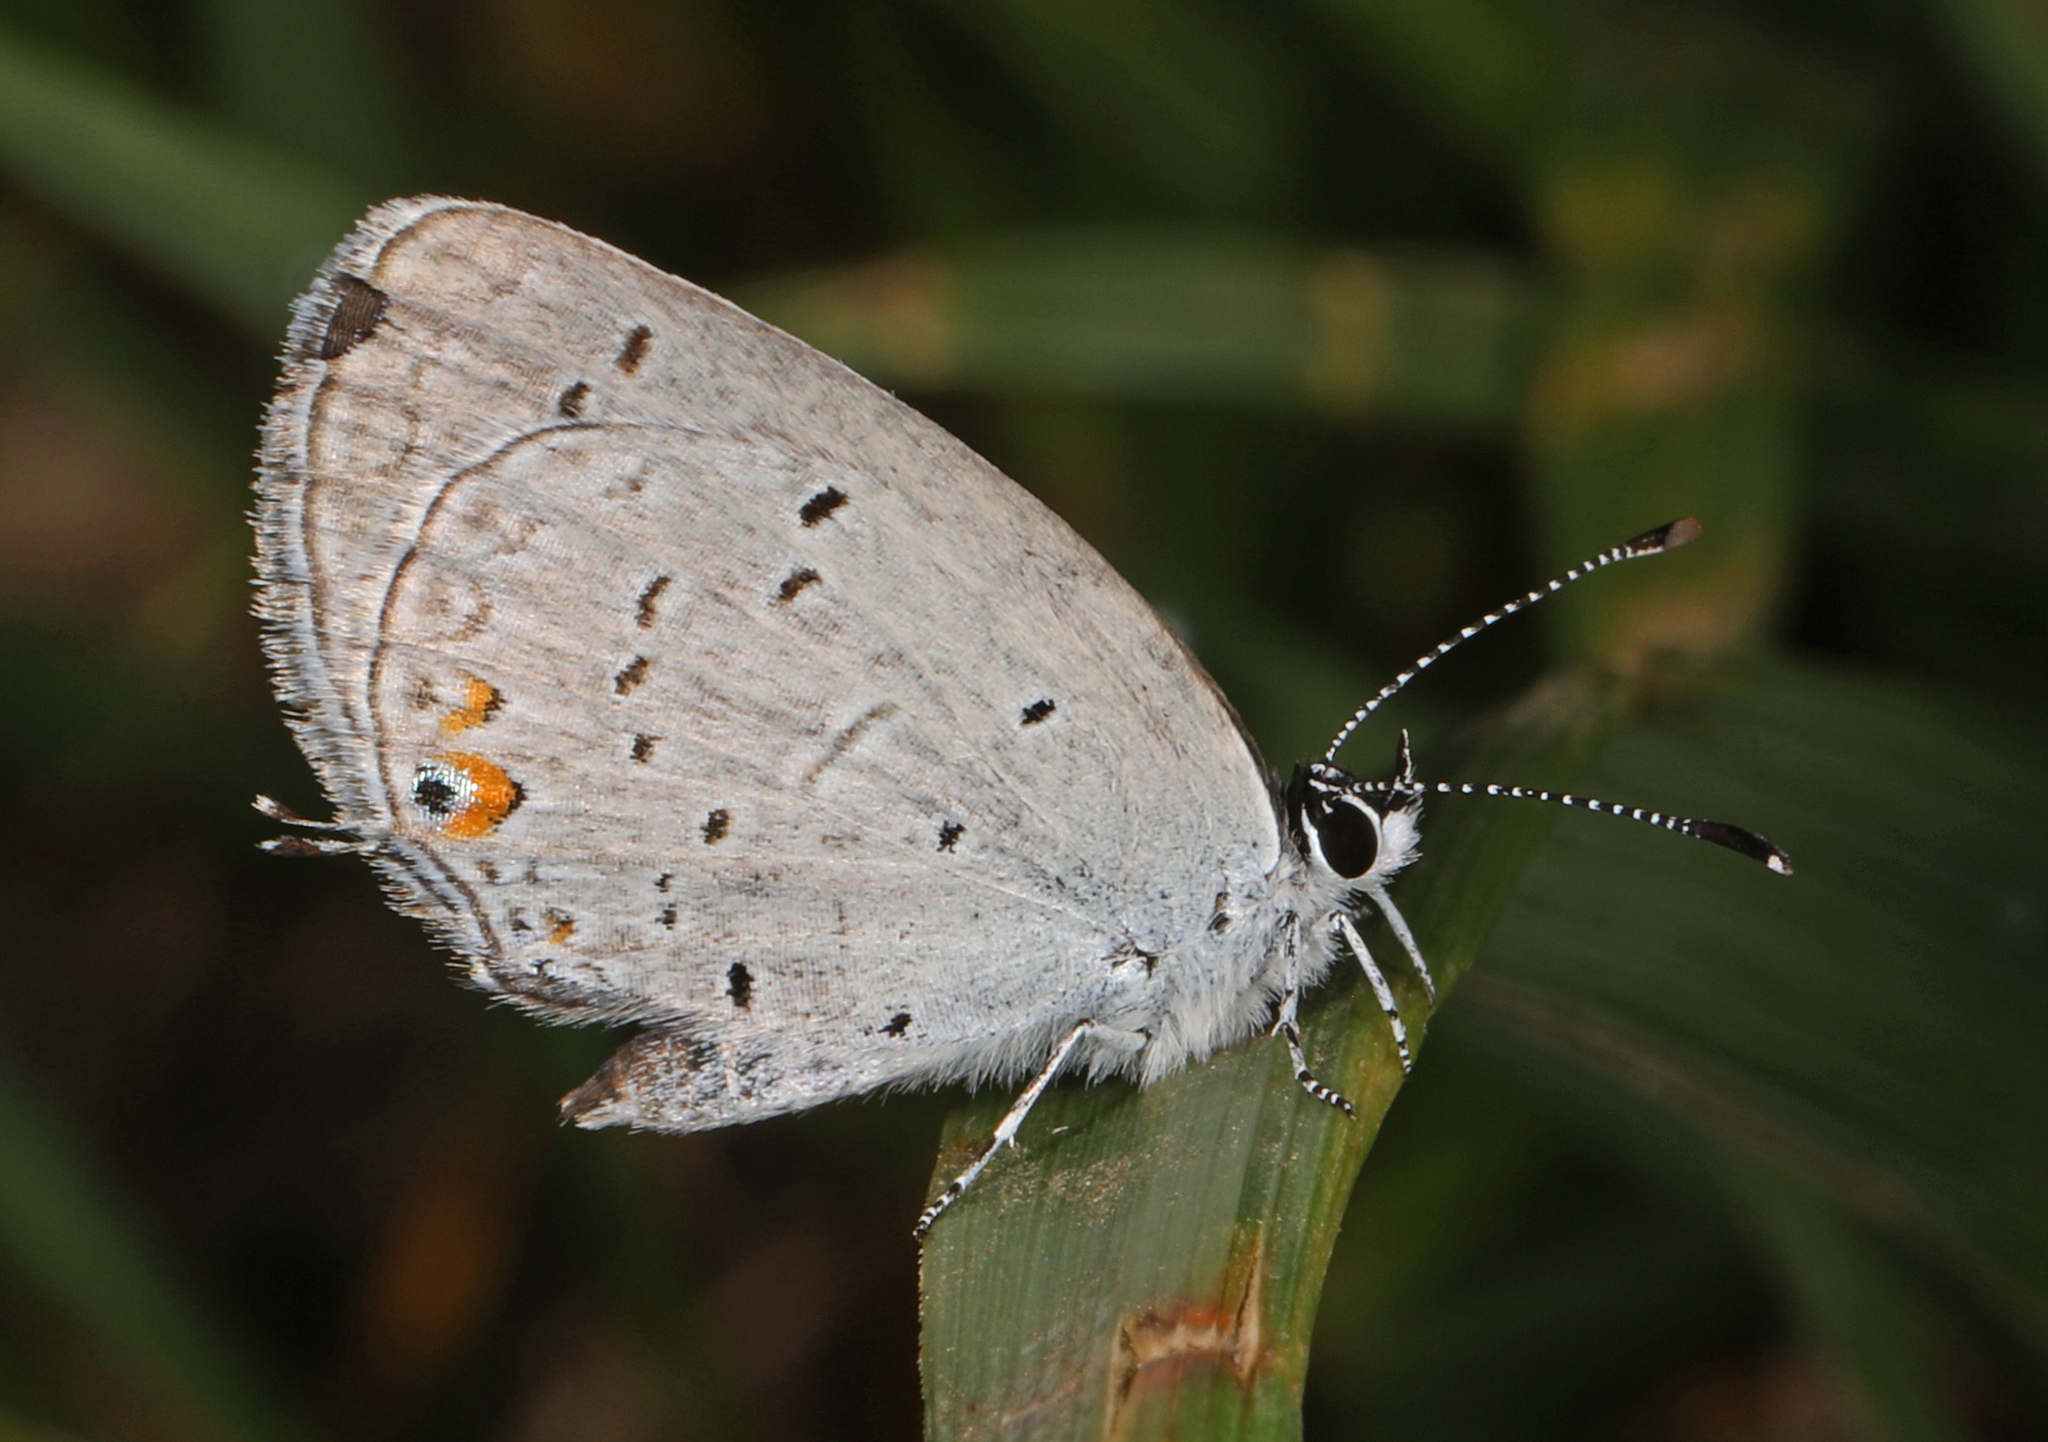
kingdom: Animalia
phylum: Arthropoda
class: Insecta
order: Lepidoptera
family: Lycaenidae
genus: Elkalyce
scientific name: Elkalyce comyntas
